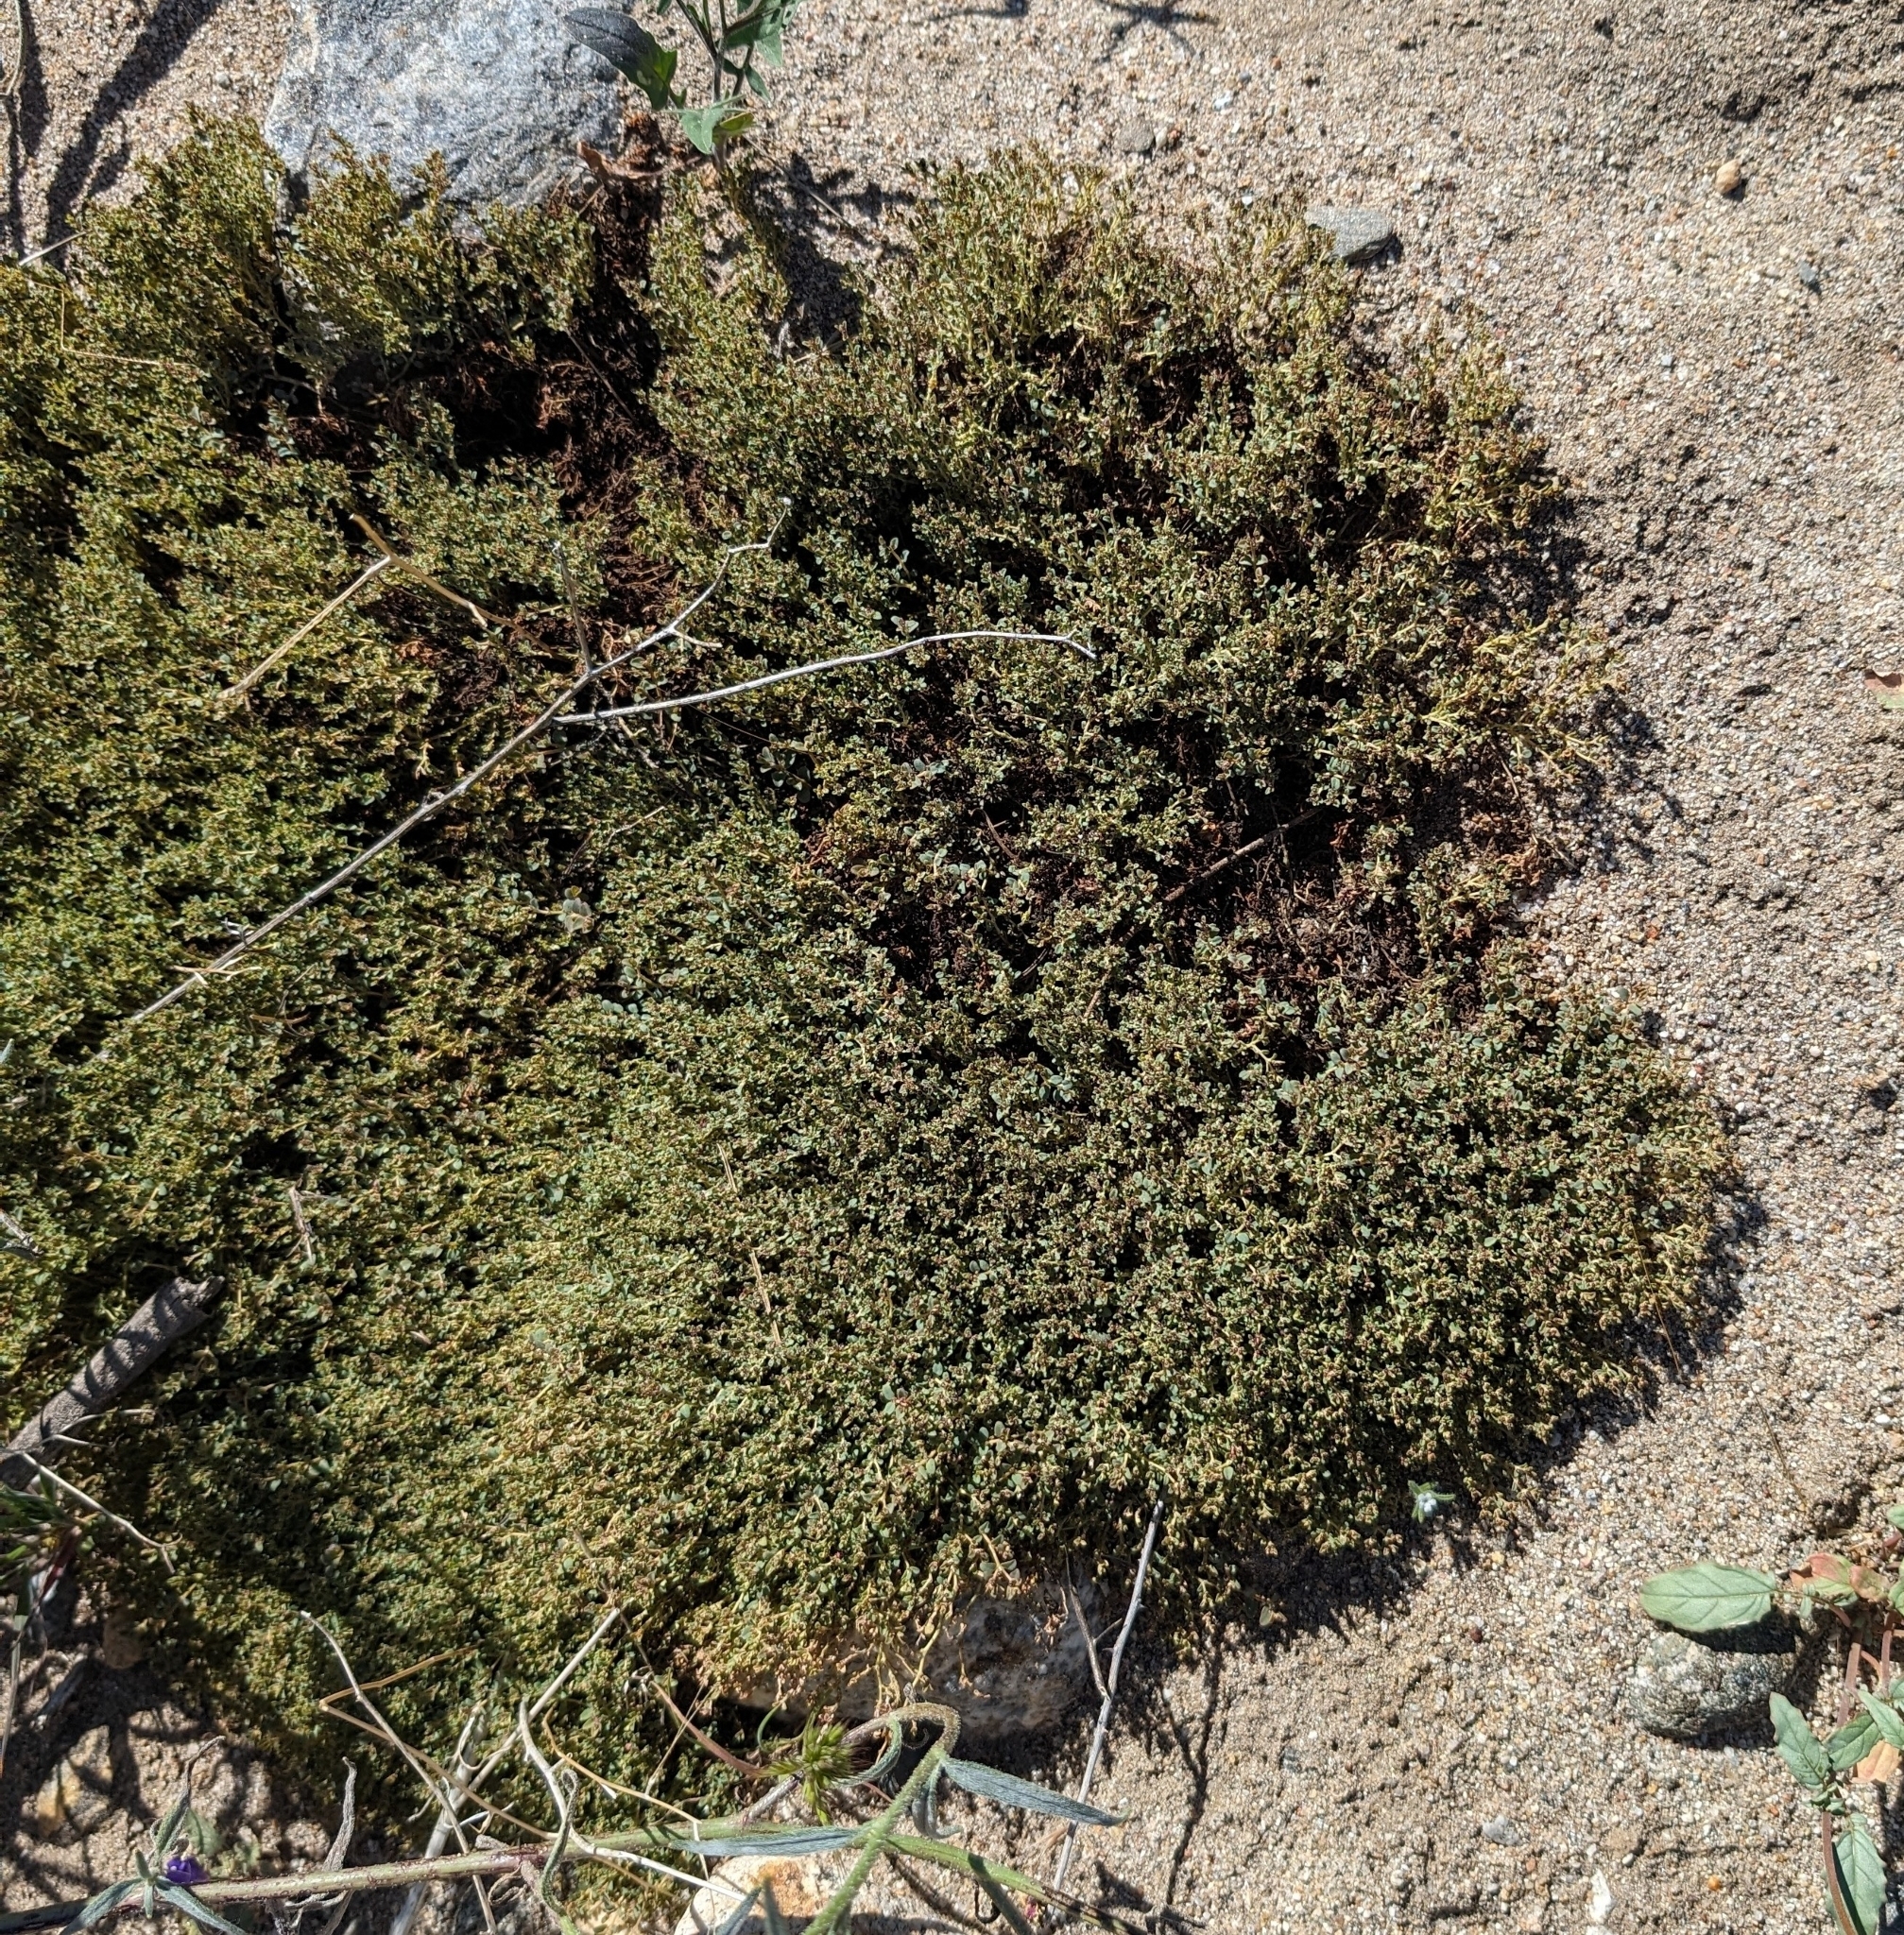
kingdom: Plantae
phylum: Tracheophyta
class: Magnoliopsida
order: Malpighiales
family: Euphorbiaceae
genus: Euphorbia
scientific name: Euphorbia polycarpa
